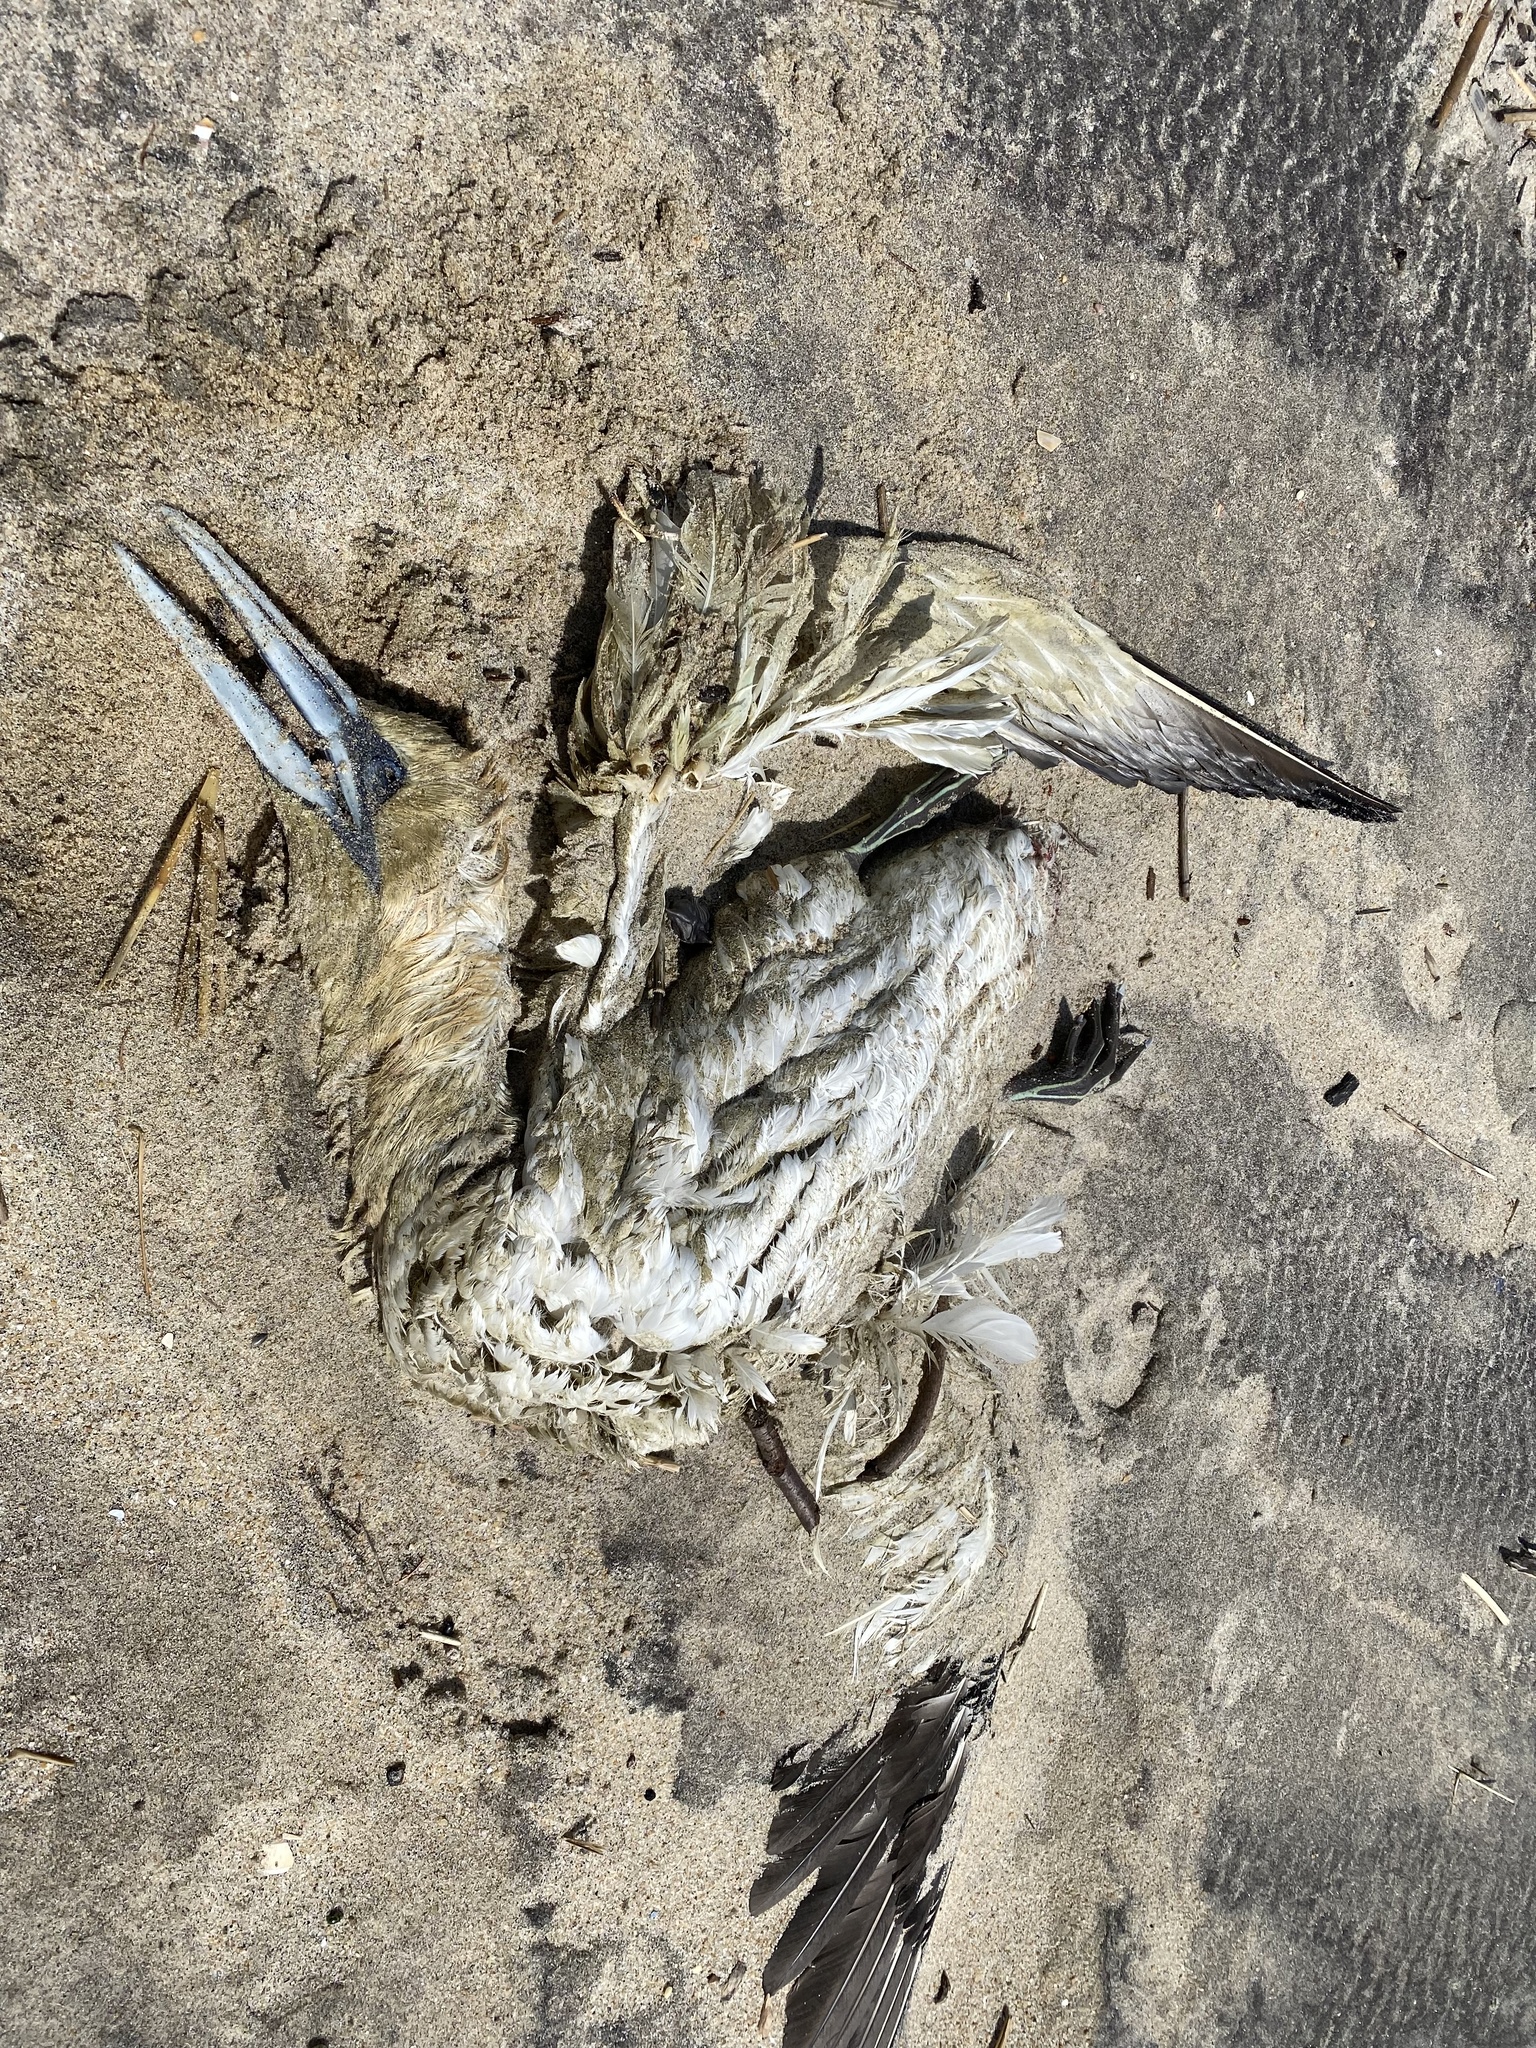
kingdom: Animalia
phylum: Chordata
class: Aves
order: Suliformes
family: Sulidae
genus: Morus
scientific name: Morus bassanus
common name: Northern gannet
